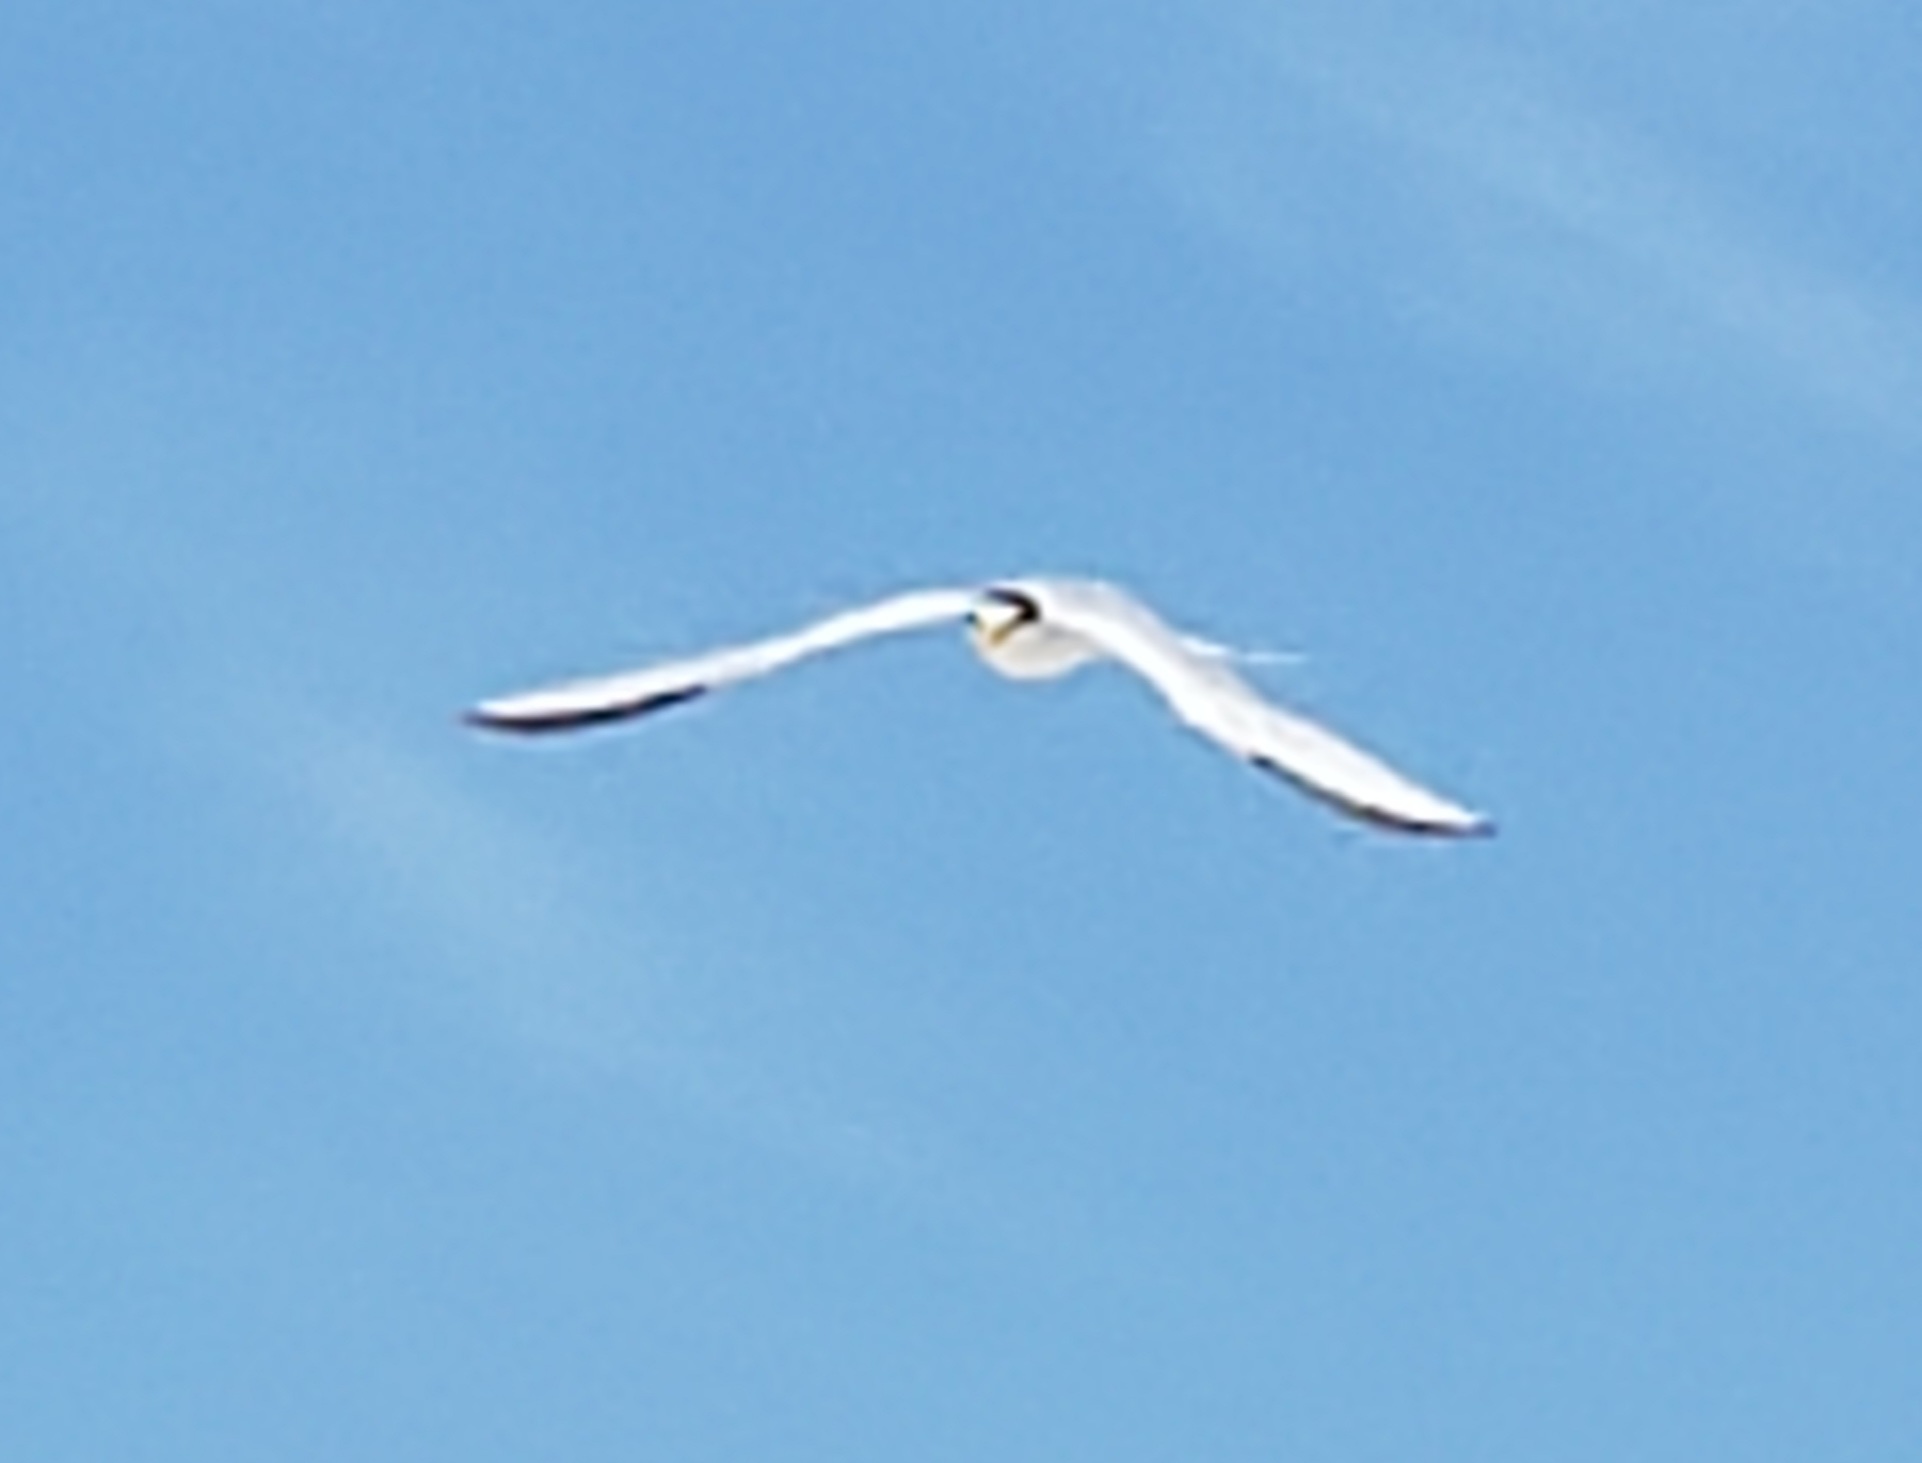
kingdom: Animalia
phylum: Chordata
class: Aves
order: Charadriiformes
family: Laridae
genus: Sternula
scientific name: Sternula antillarum
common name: Least tern
